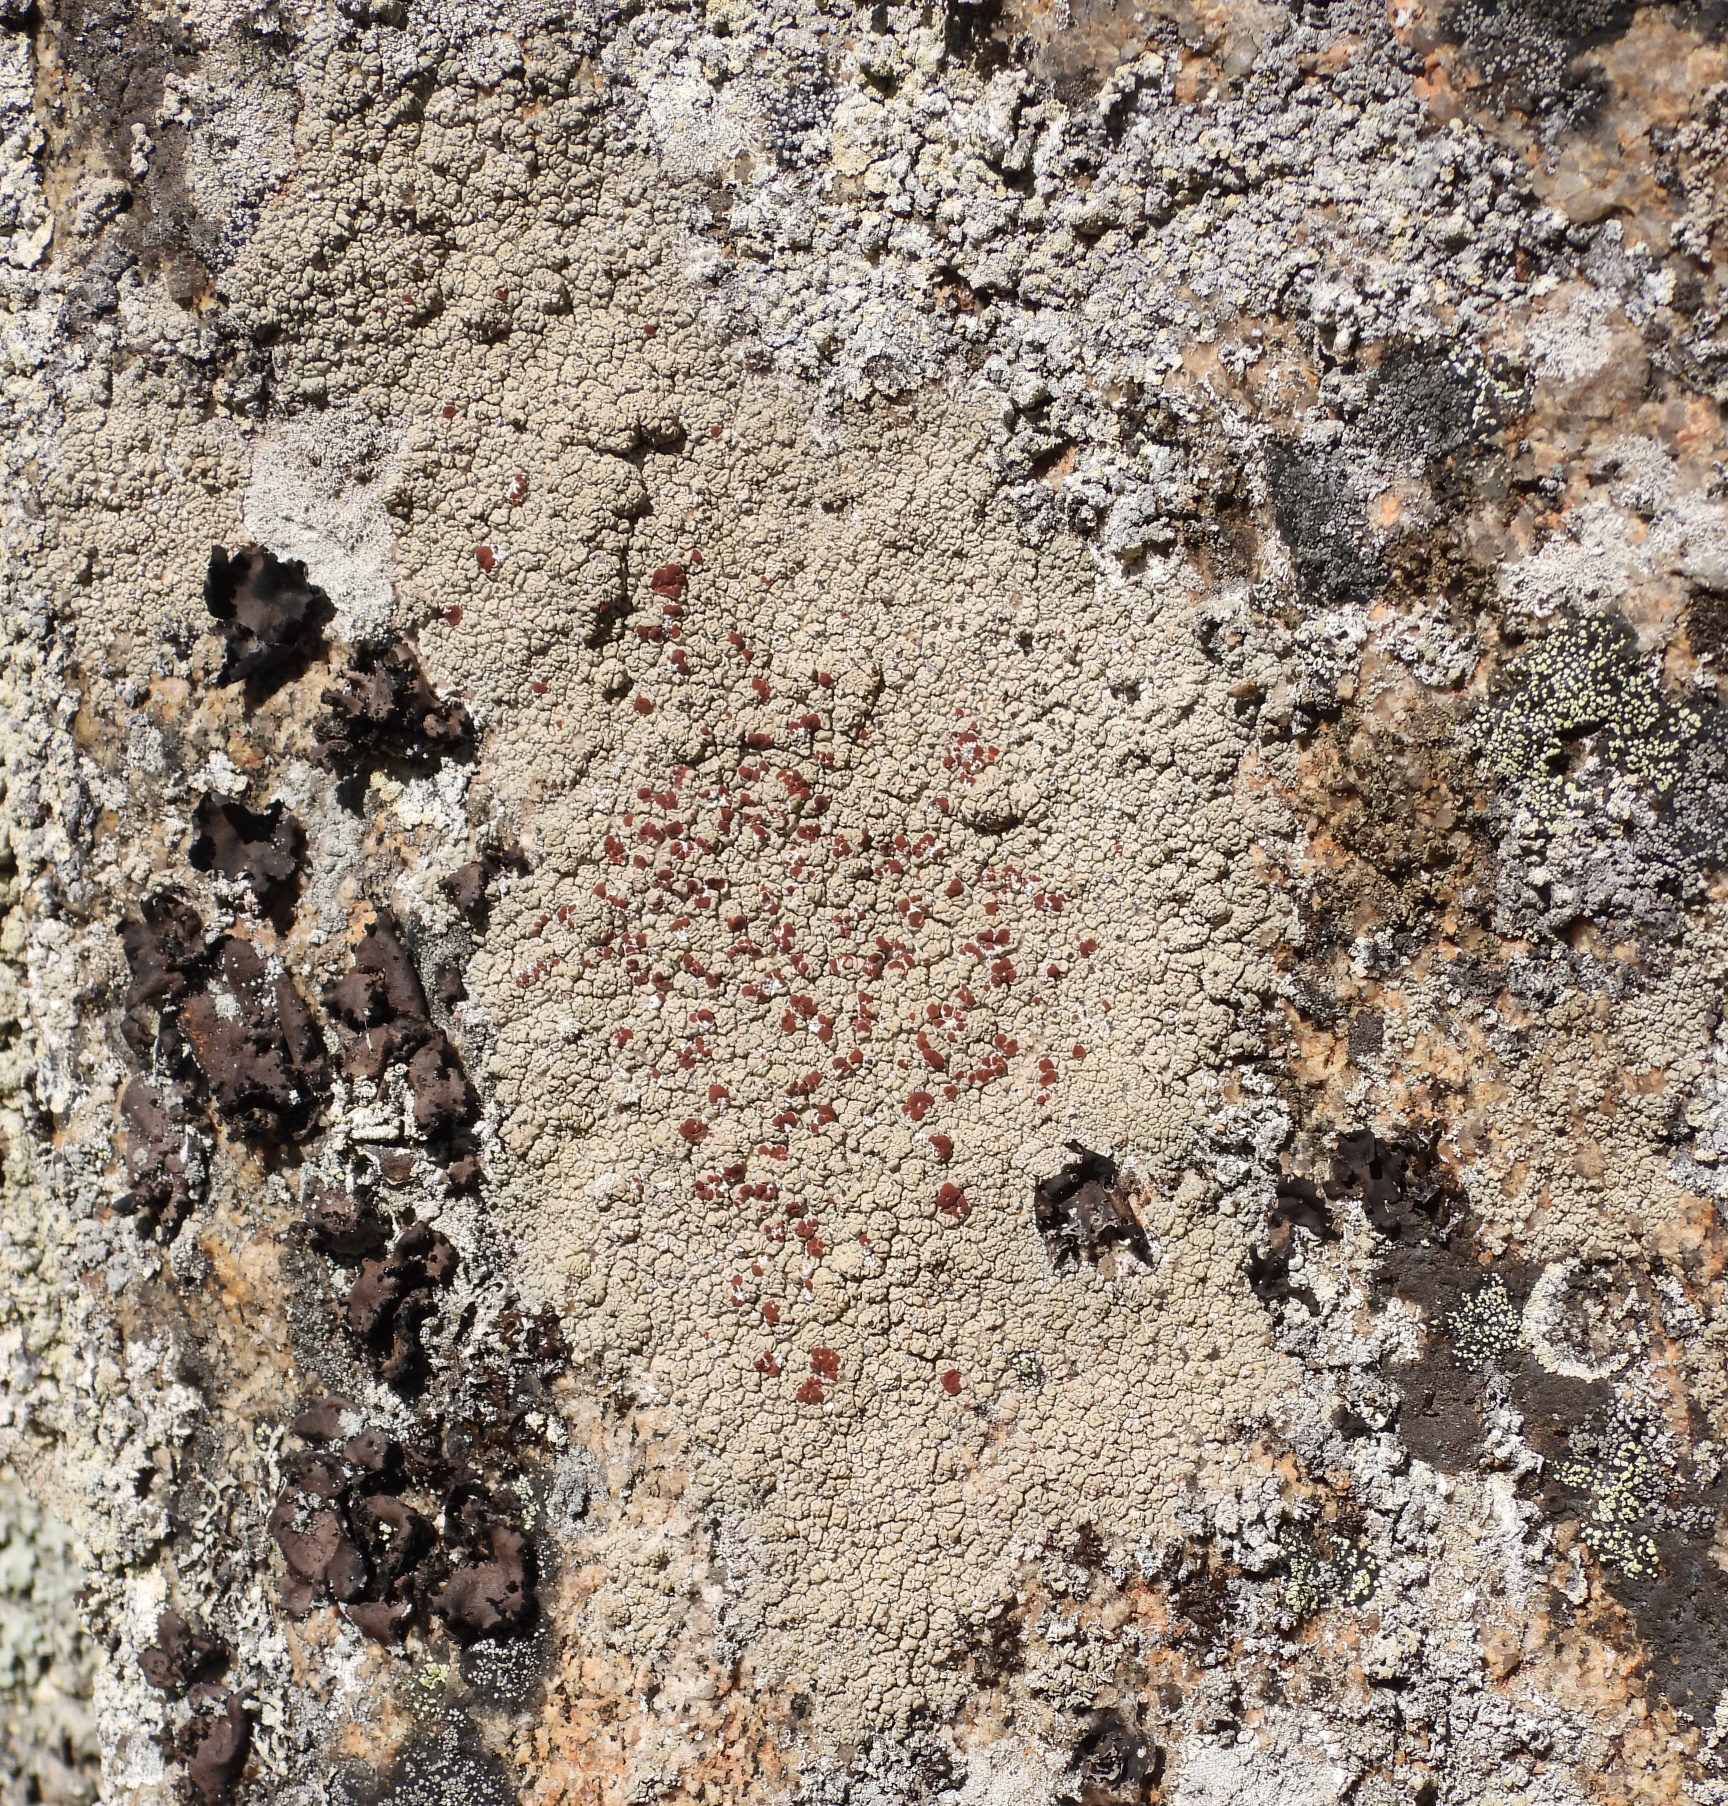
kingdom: Fungi
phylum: Ascomycota
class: Lecanoromycetes
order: Umbilicariales
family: Ophioparmaceae
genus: Ophioparma
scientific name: Ophioparma ventosa
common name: Blood-spot
